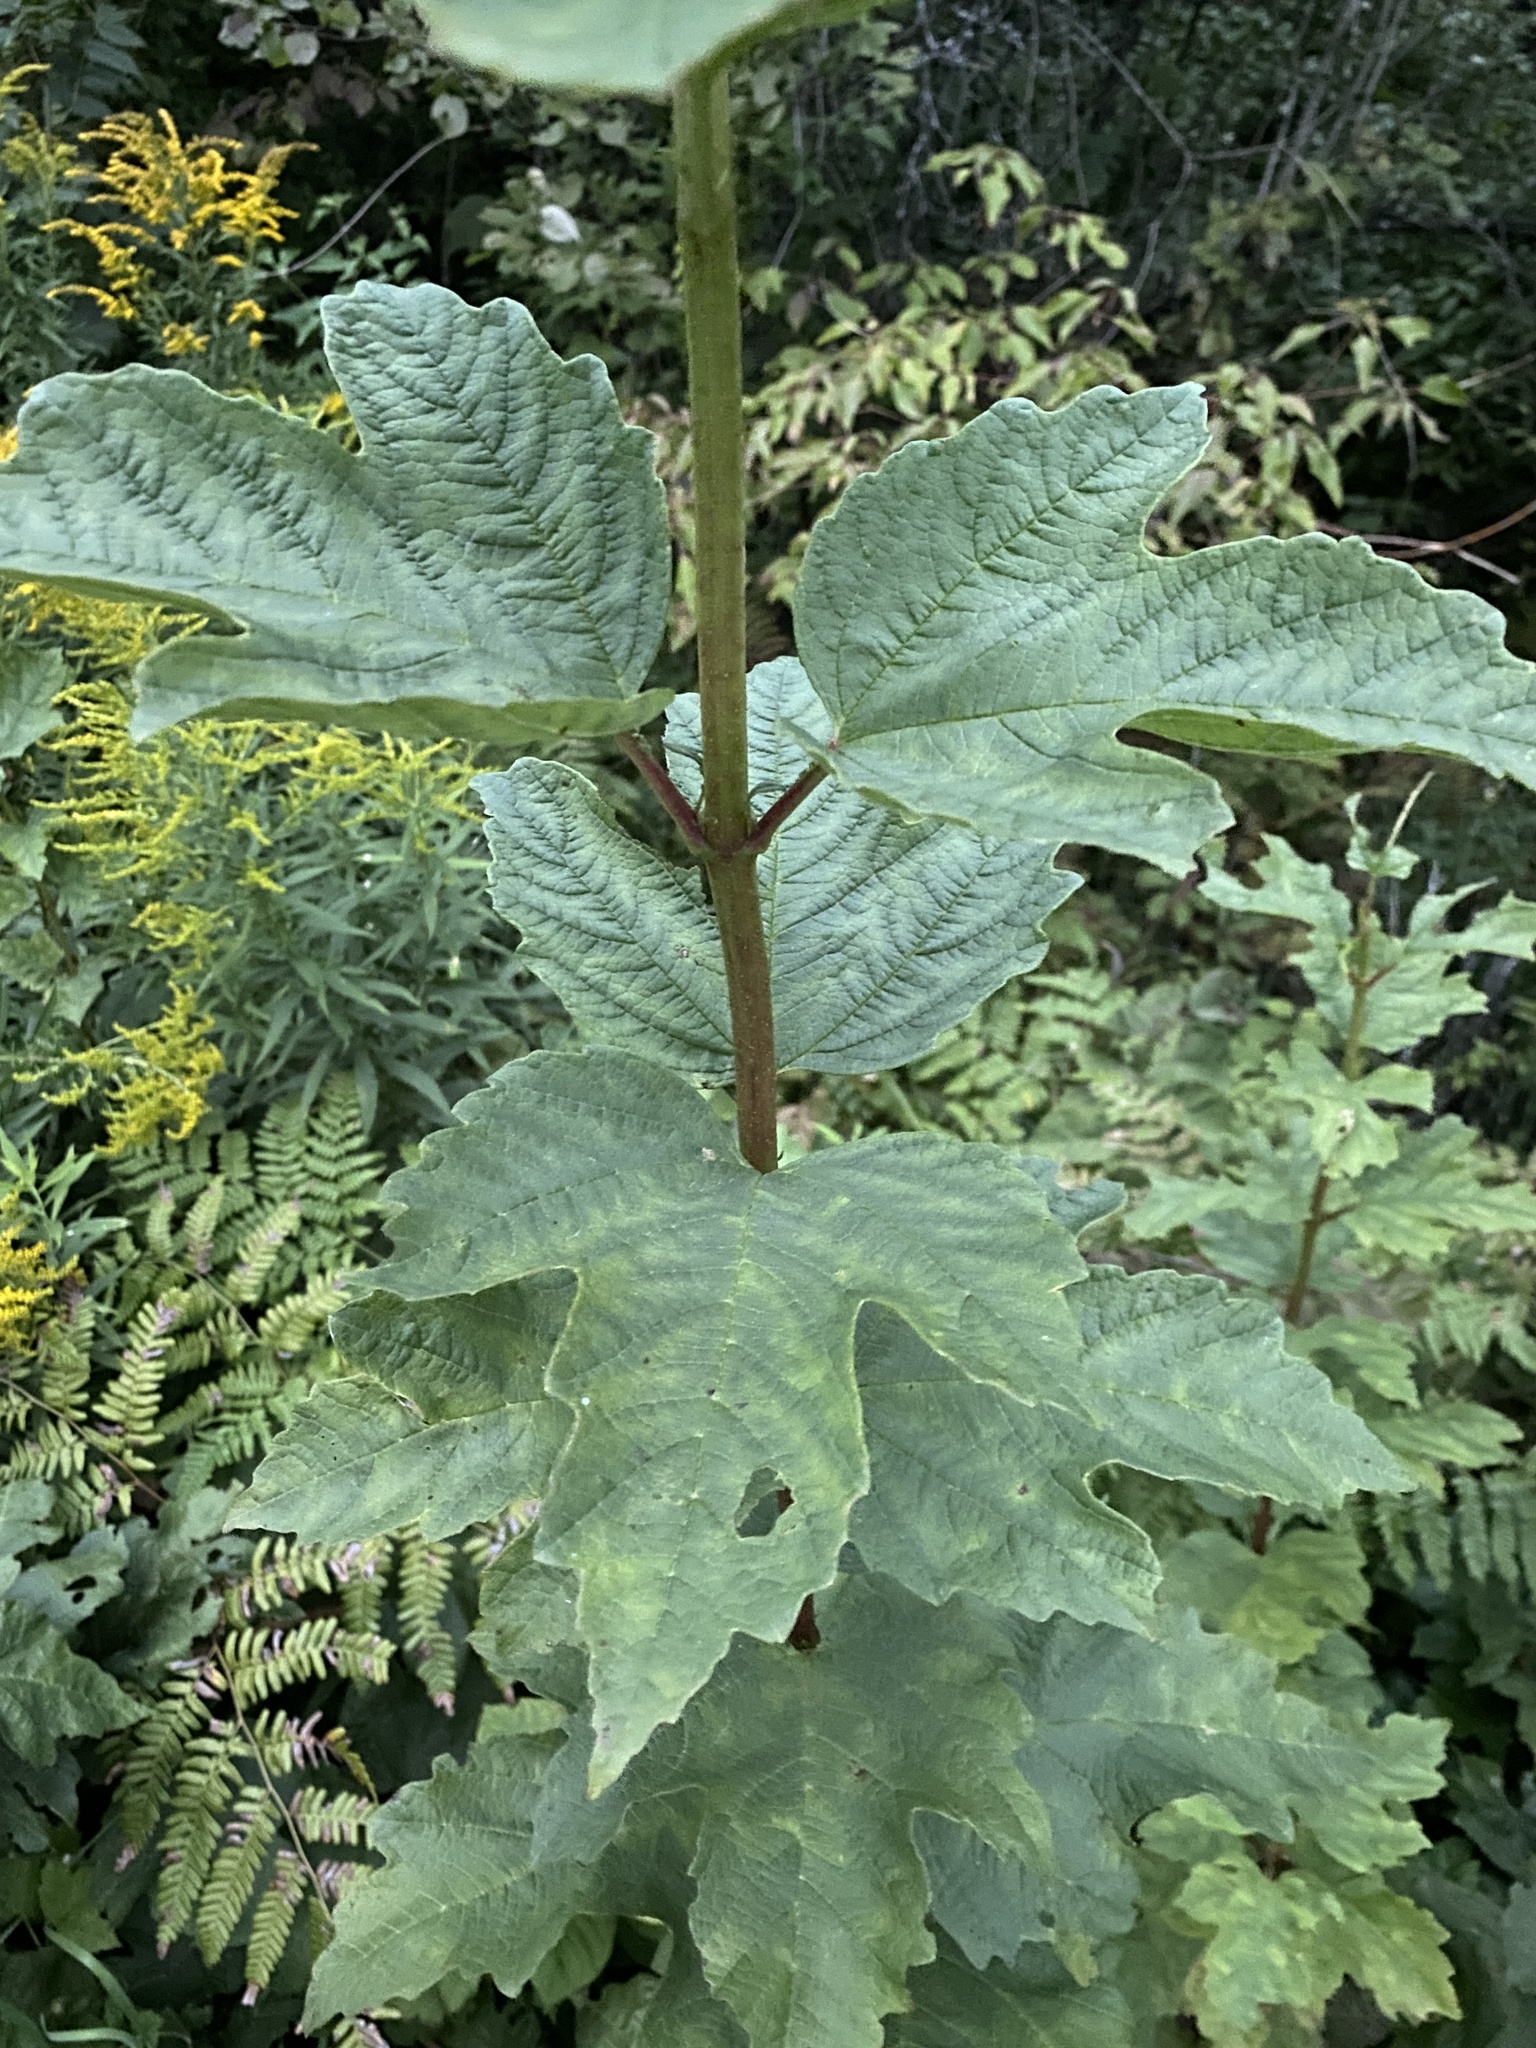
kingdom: Plantae
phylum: Tracheophyta
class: Magnoliopsida
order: Dipsacales
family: Viburnaceae
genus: Viburnum
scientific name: Viburnum opulus
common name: Guelder-rose
